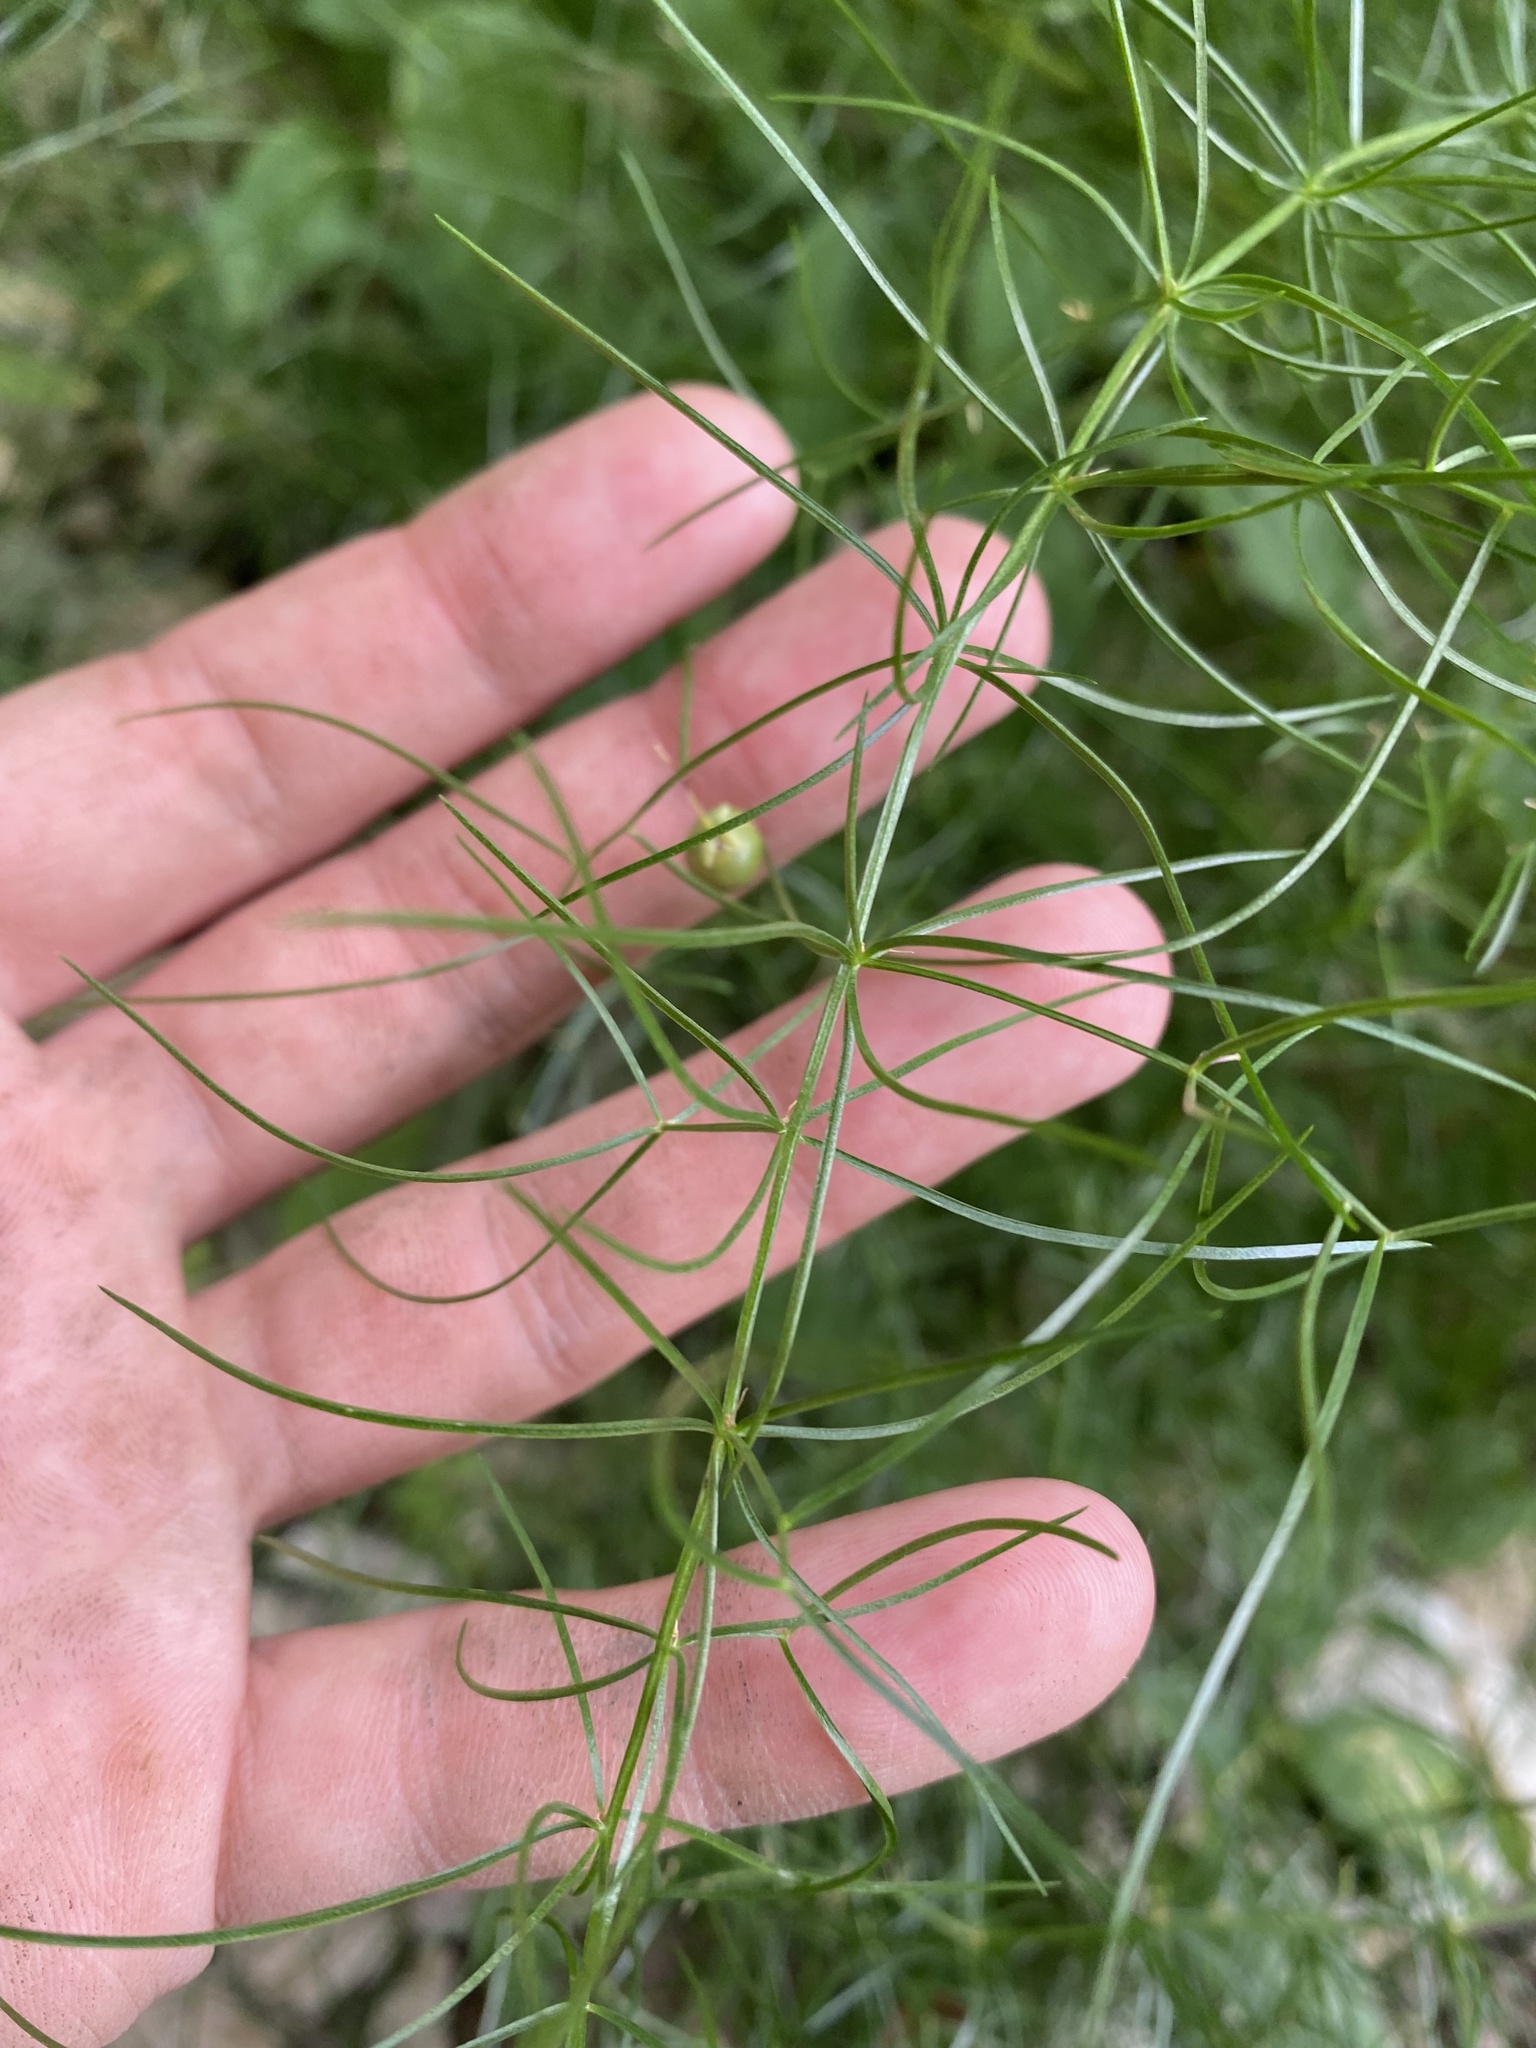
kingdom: Plantae
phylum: Tracheophyta
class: Liliopsida
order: Asparagales
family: Asparagaceae
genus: Asparagus
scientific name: Asparagus verticillatus
